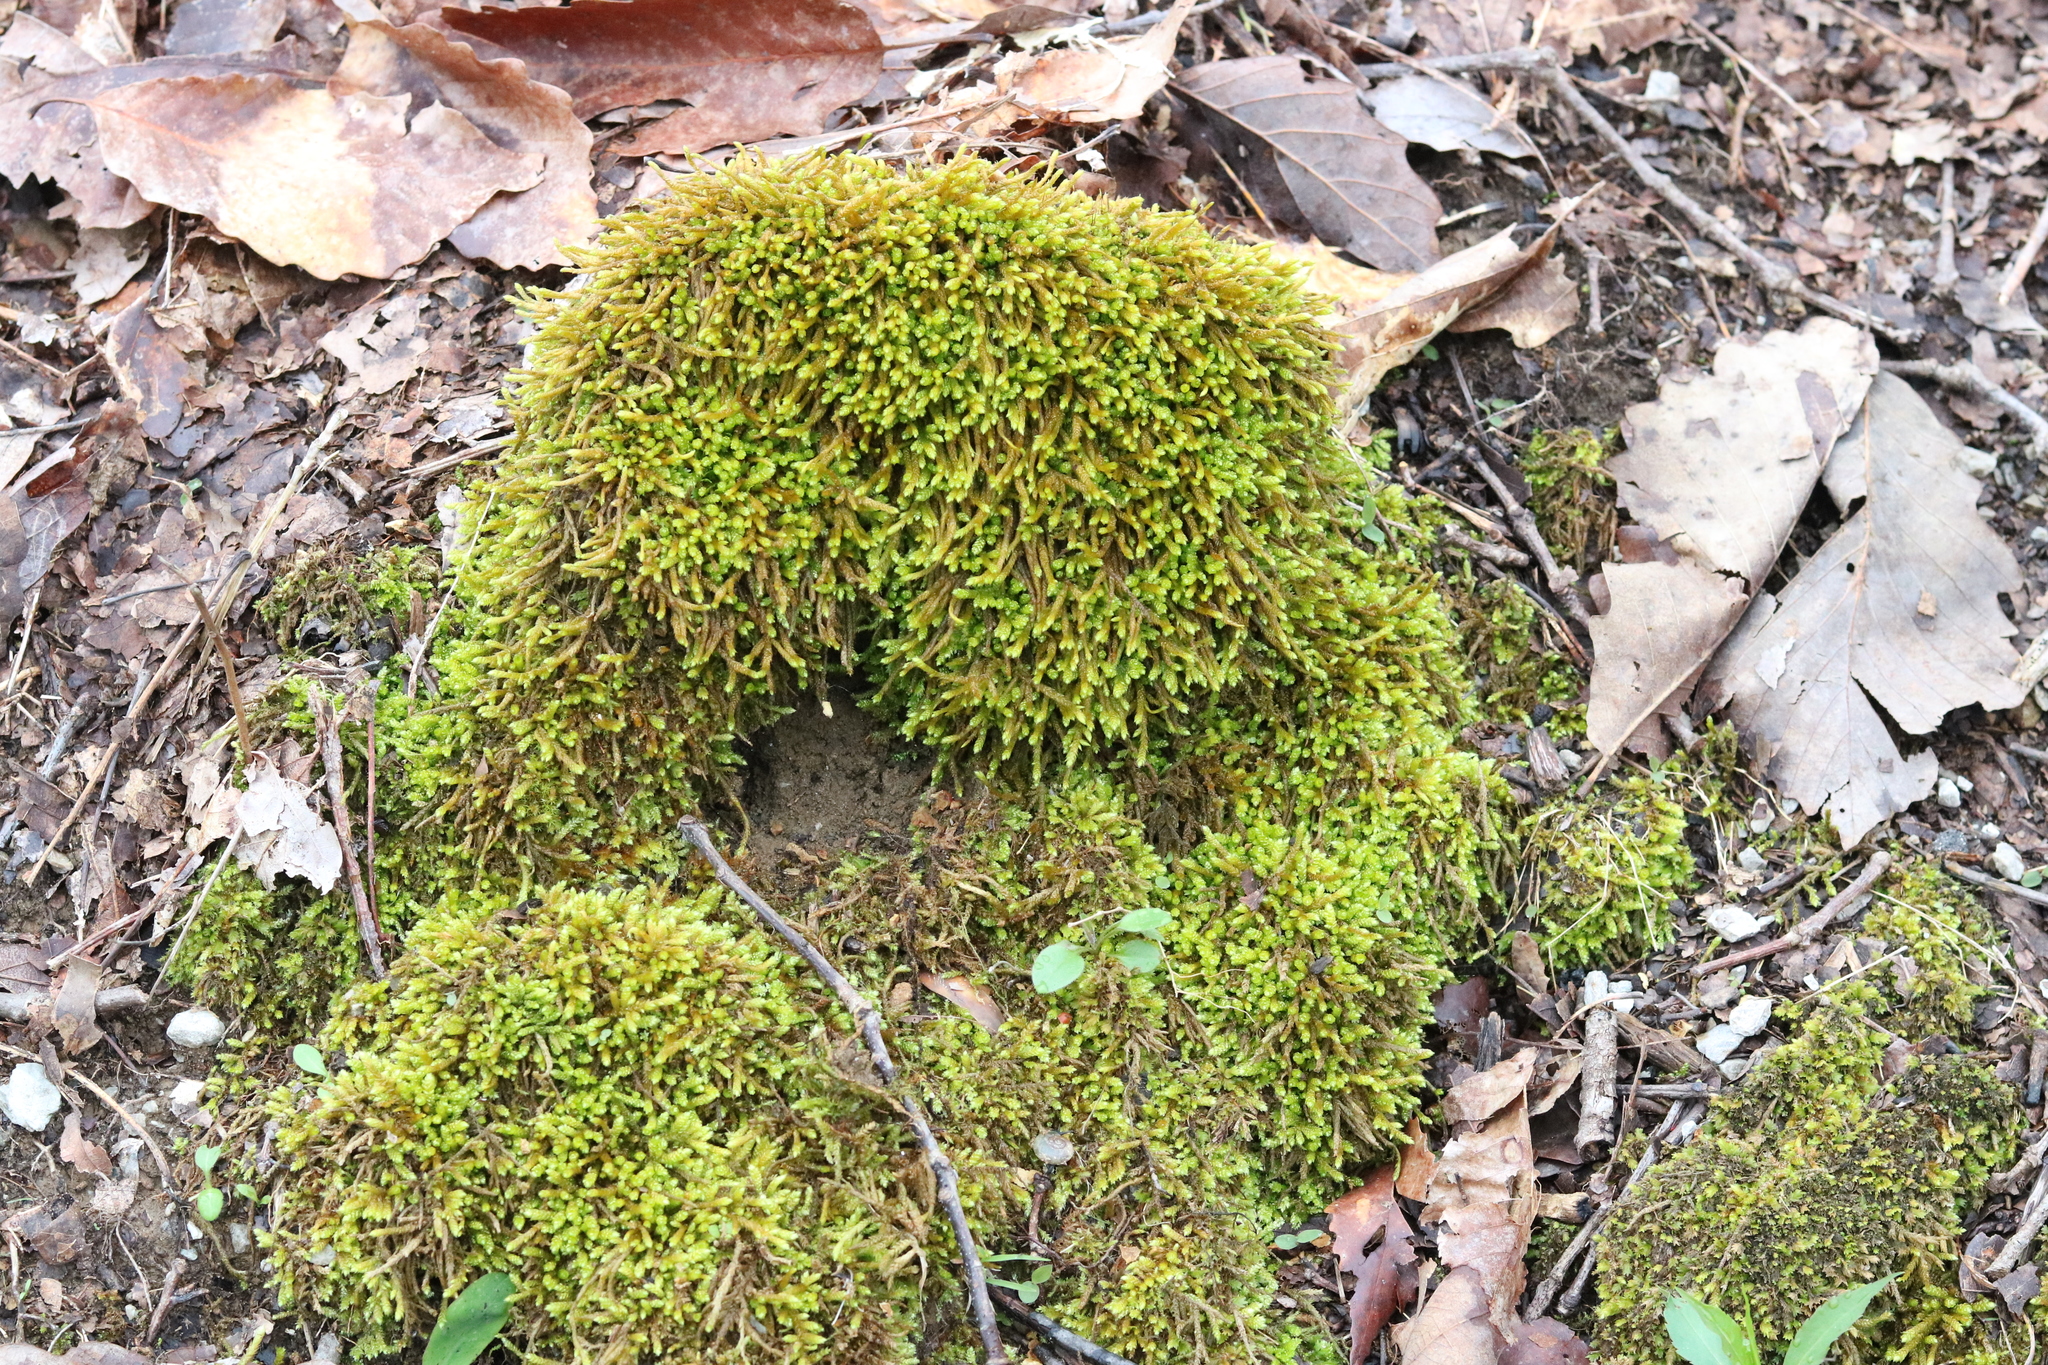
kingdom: Plantae
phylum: Bryophyta
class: Bryopsida
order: Hypnales
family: Brachytheciaceae
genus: Bryoandersonia
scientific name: Bryoandersonia illecebra
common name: Spoon-leaved moss
